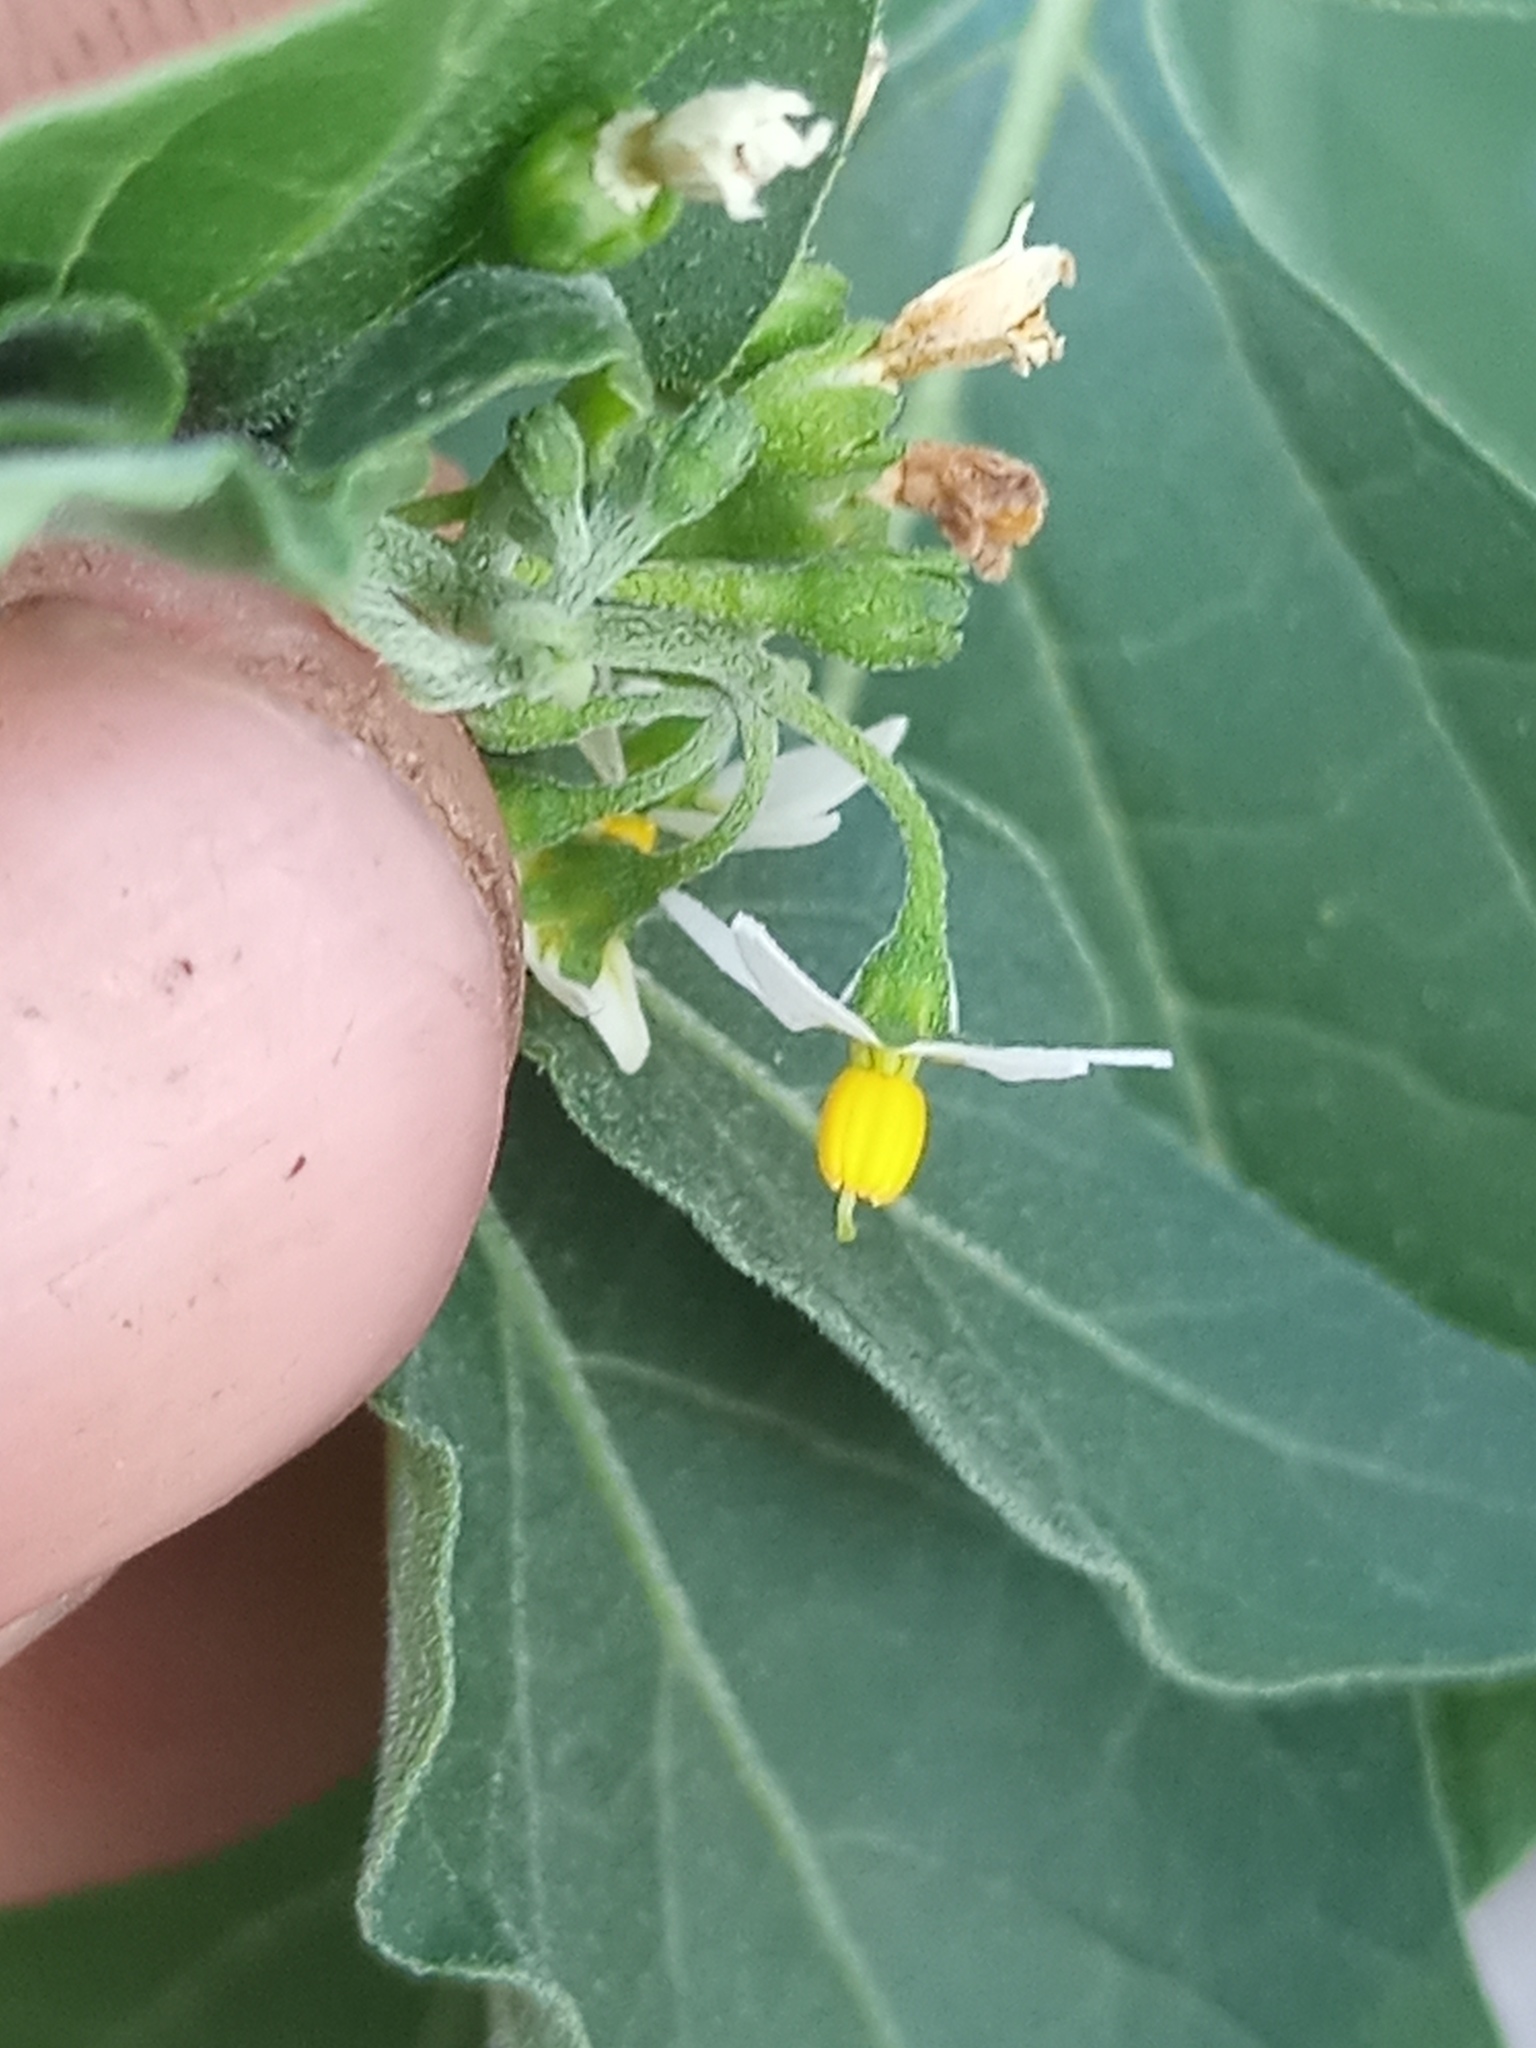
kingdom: Plantae
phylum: Tracheophyta
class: Magnoliopsida
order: Solanales
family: Solanaceae
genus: Solanum
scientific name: Solanum americanum
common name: American black nightshade
